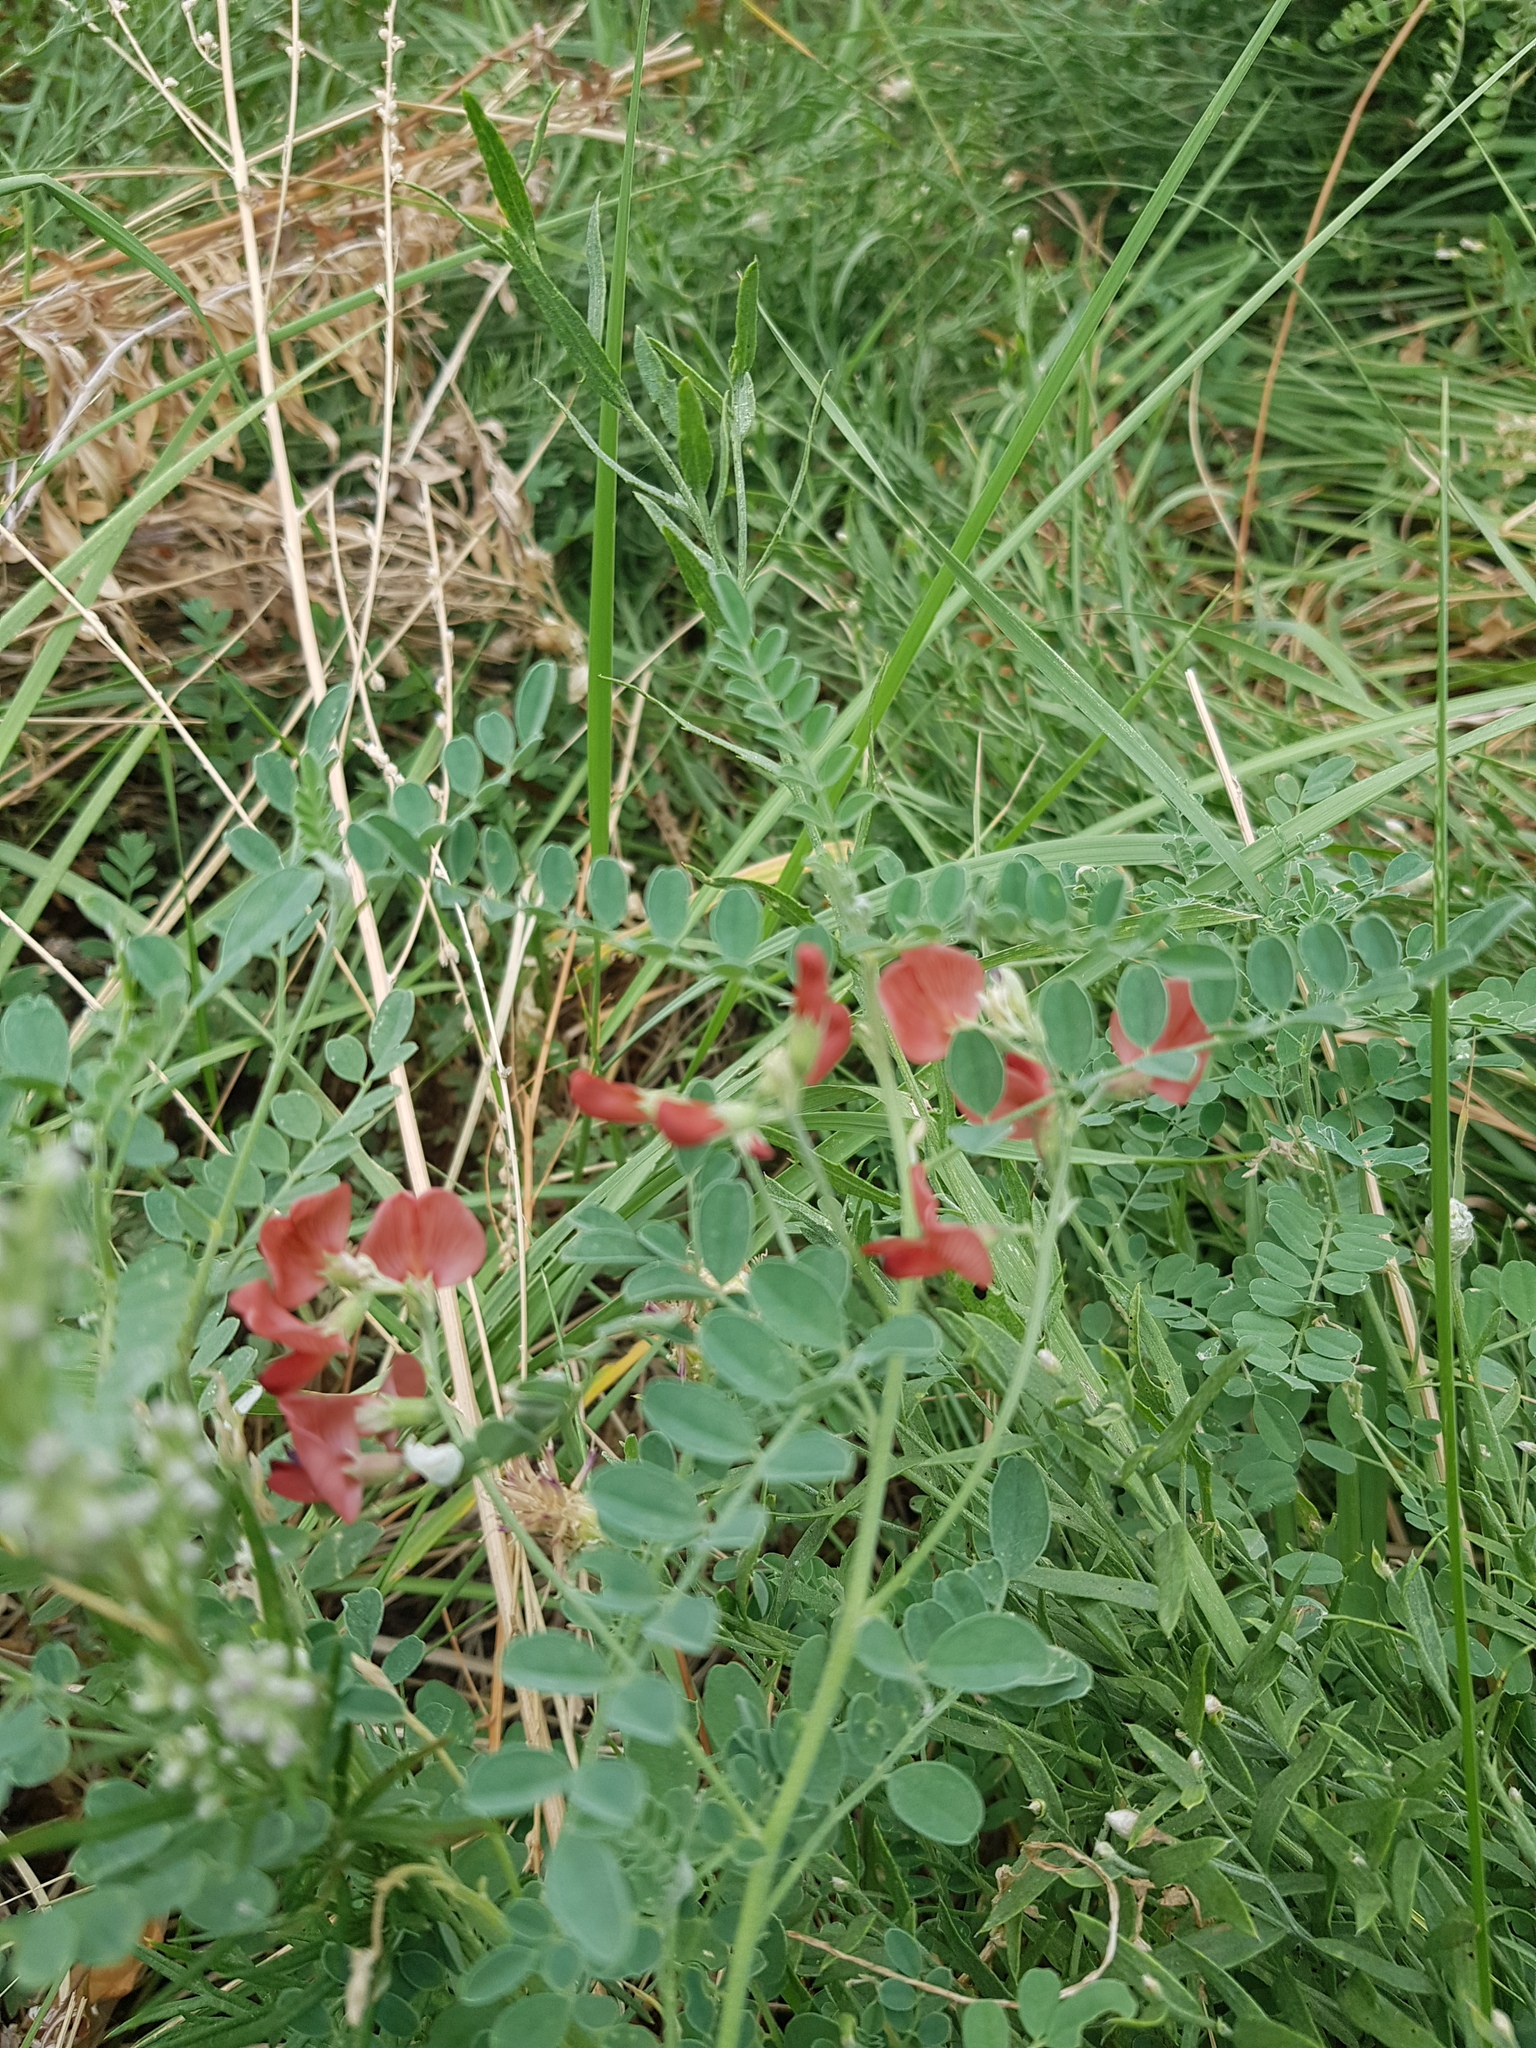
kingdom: Plantae
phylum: Tracheophyta
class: Magnoliopsida
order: Fabales
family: Fabaceae
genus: Sphaerophysa
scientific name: Sphaerophysa salsula
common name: Alkali swainsonpea
